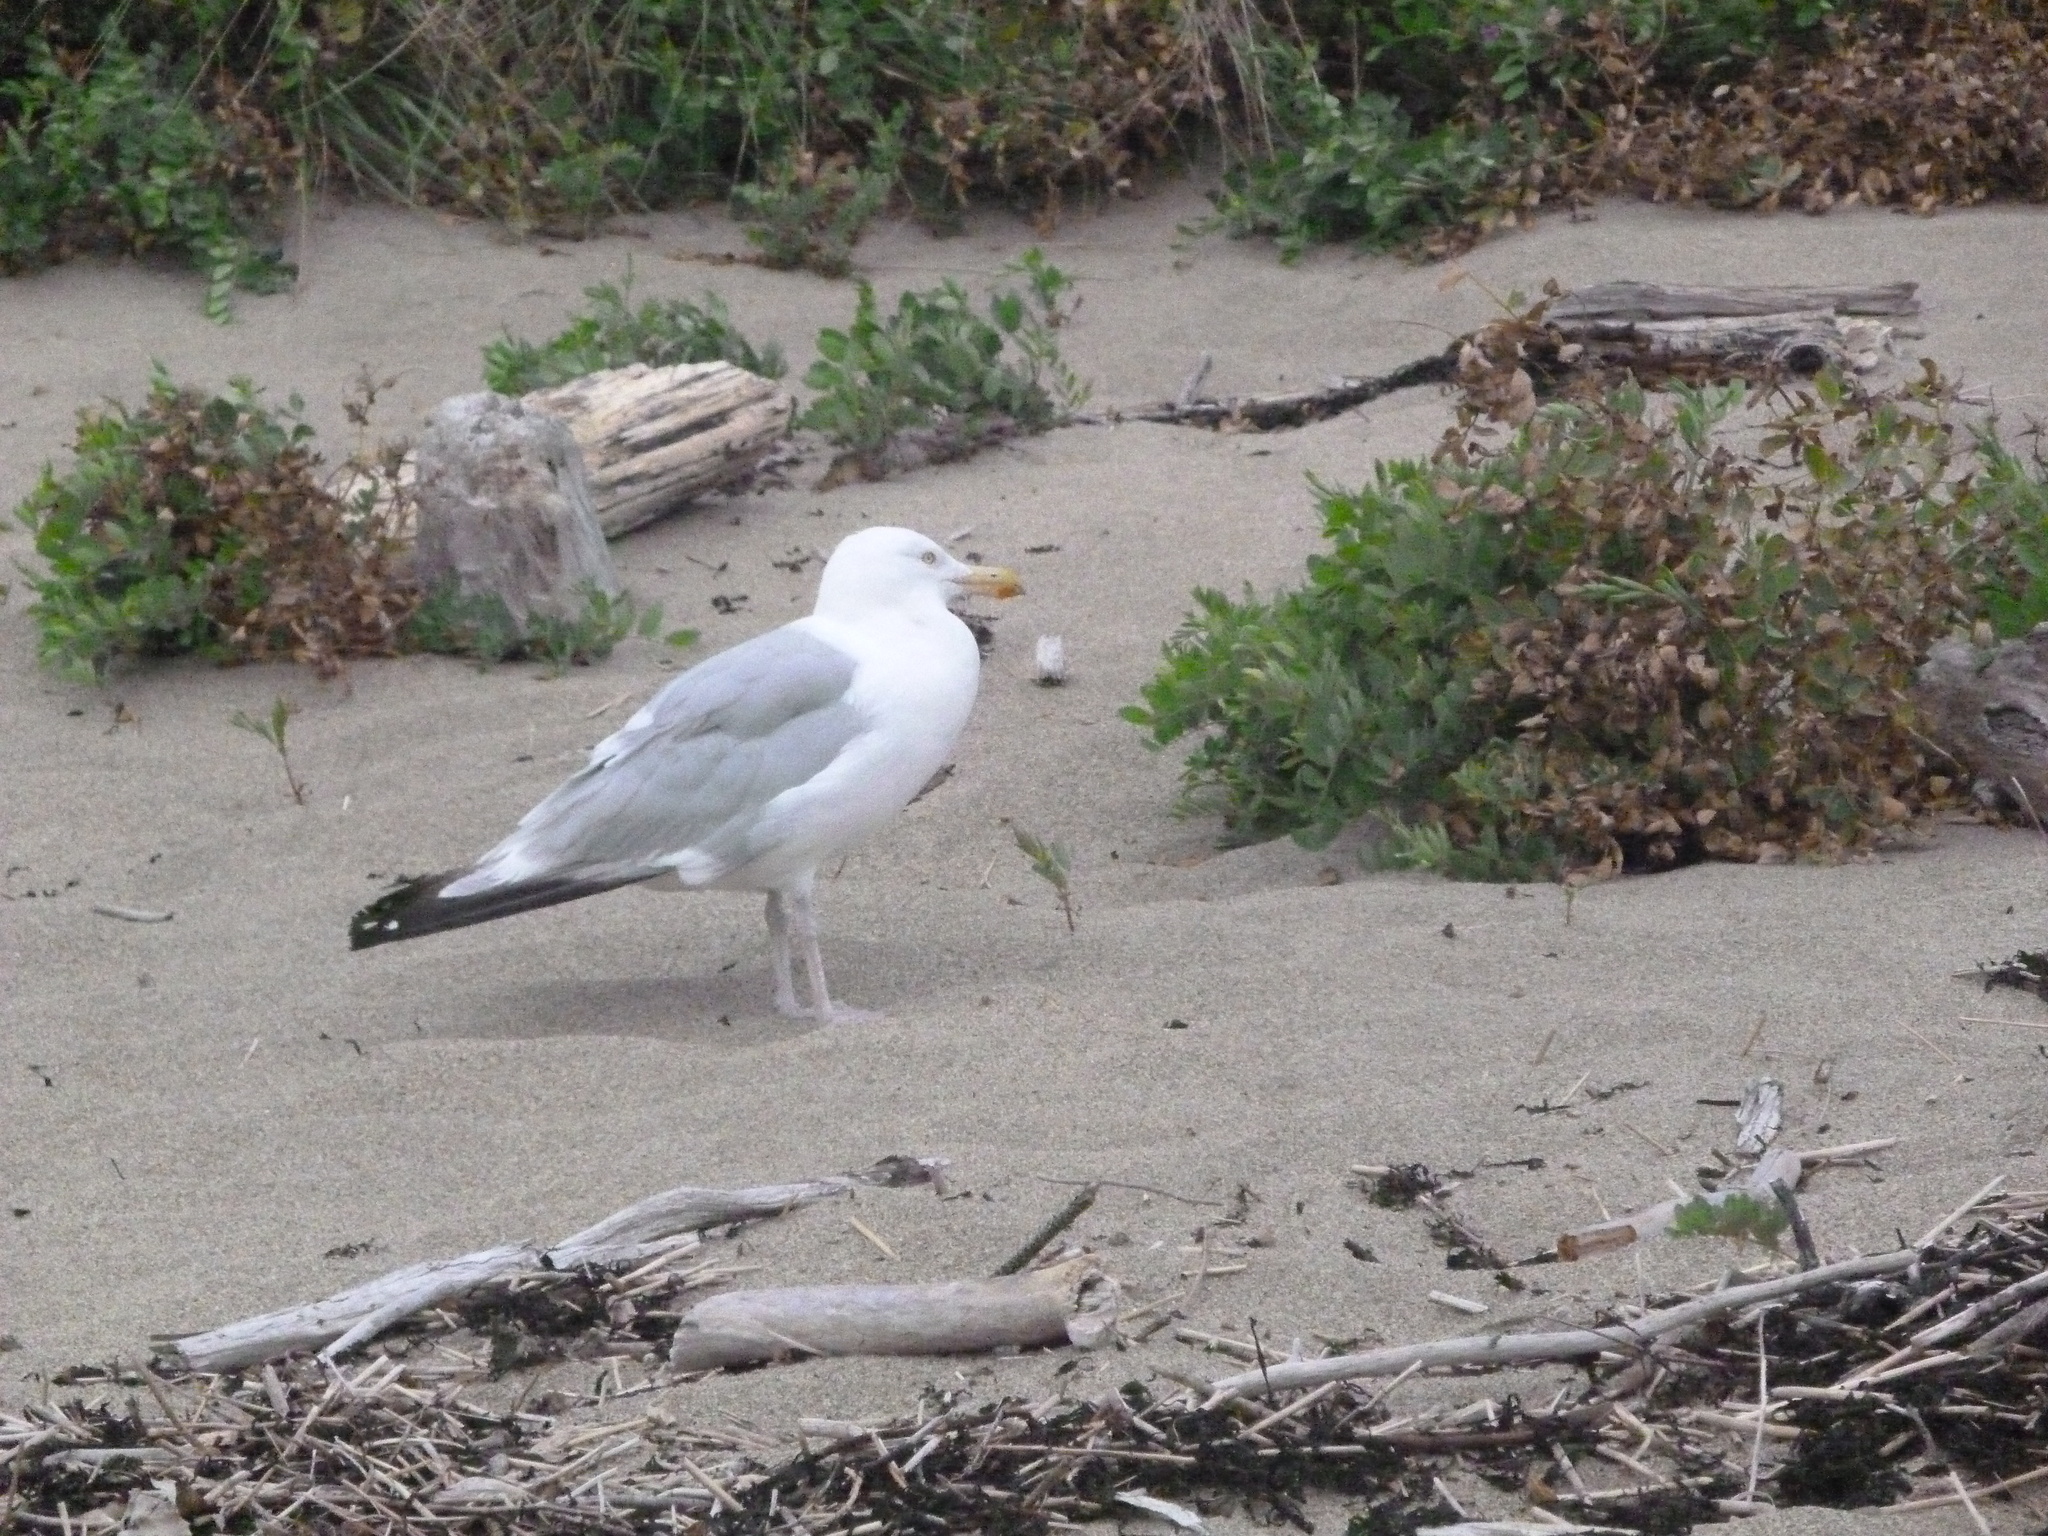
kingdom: Animalia
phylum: Chordata
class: Aves
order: Charadriiformes
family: Laridae
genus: Larus
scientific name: Larus argentatus
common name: Herring gull
